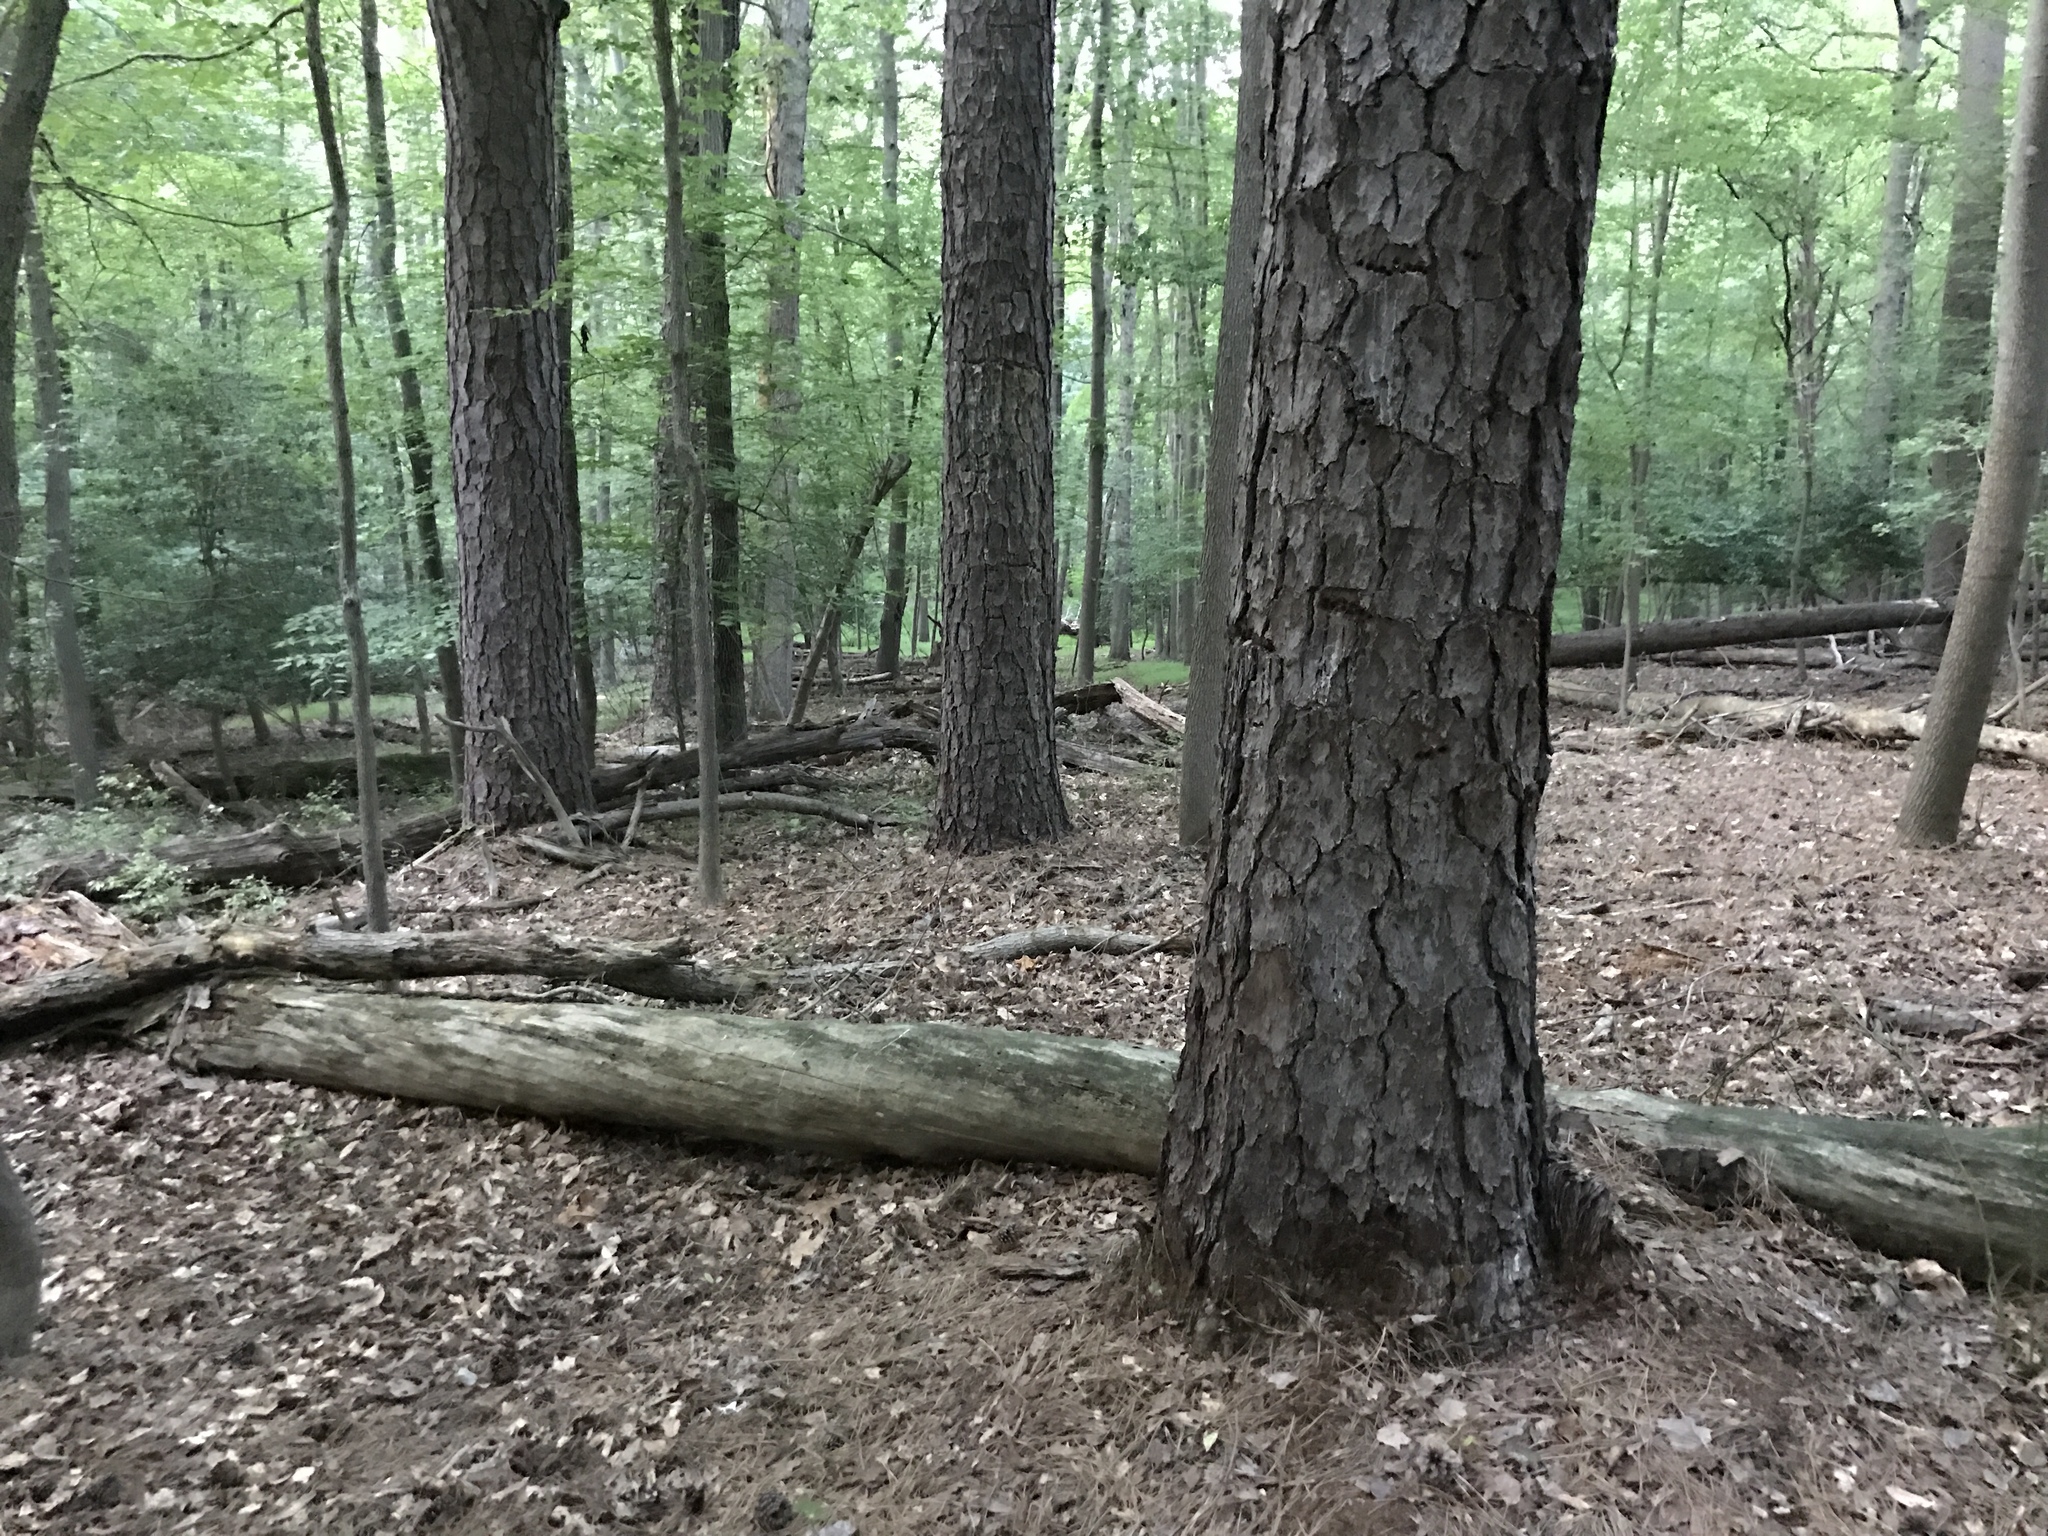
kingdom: Plantae
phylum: Tracheophyta
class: Pinopsida
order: Pinales
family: Pinaceae
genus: Pinus
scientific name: Pinus rigida
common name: Pitch pine
